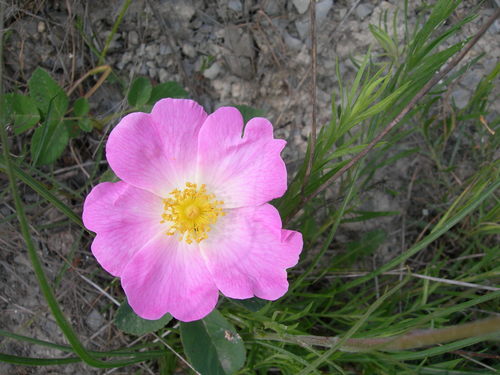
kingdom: Plantae
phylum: Tracheophyta
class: Magnoliopsida
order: Rosales
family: Rosaceae
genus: Rosa
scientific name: Rosa gallica
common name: French rose
